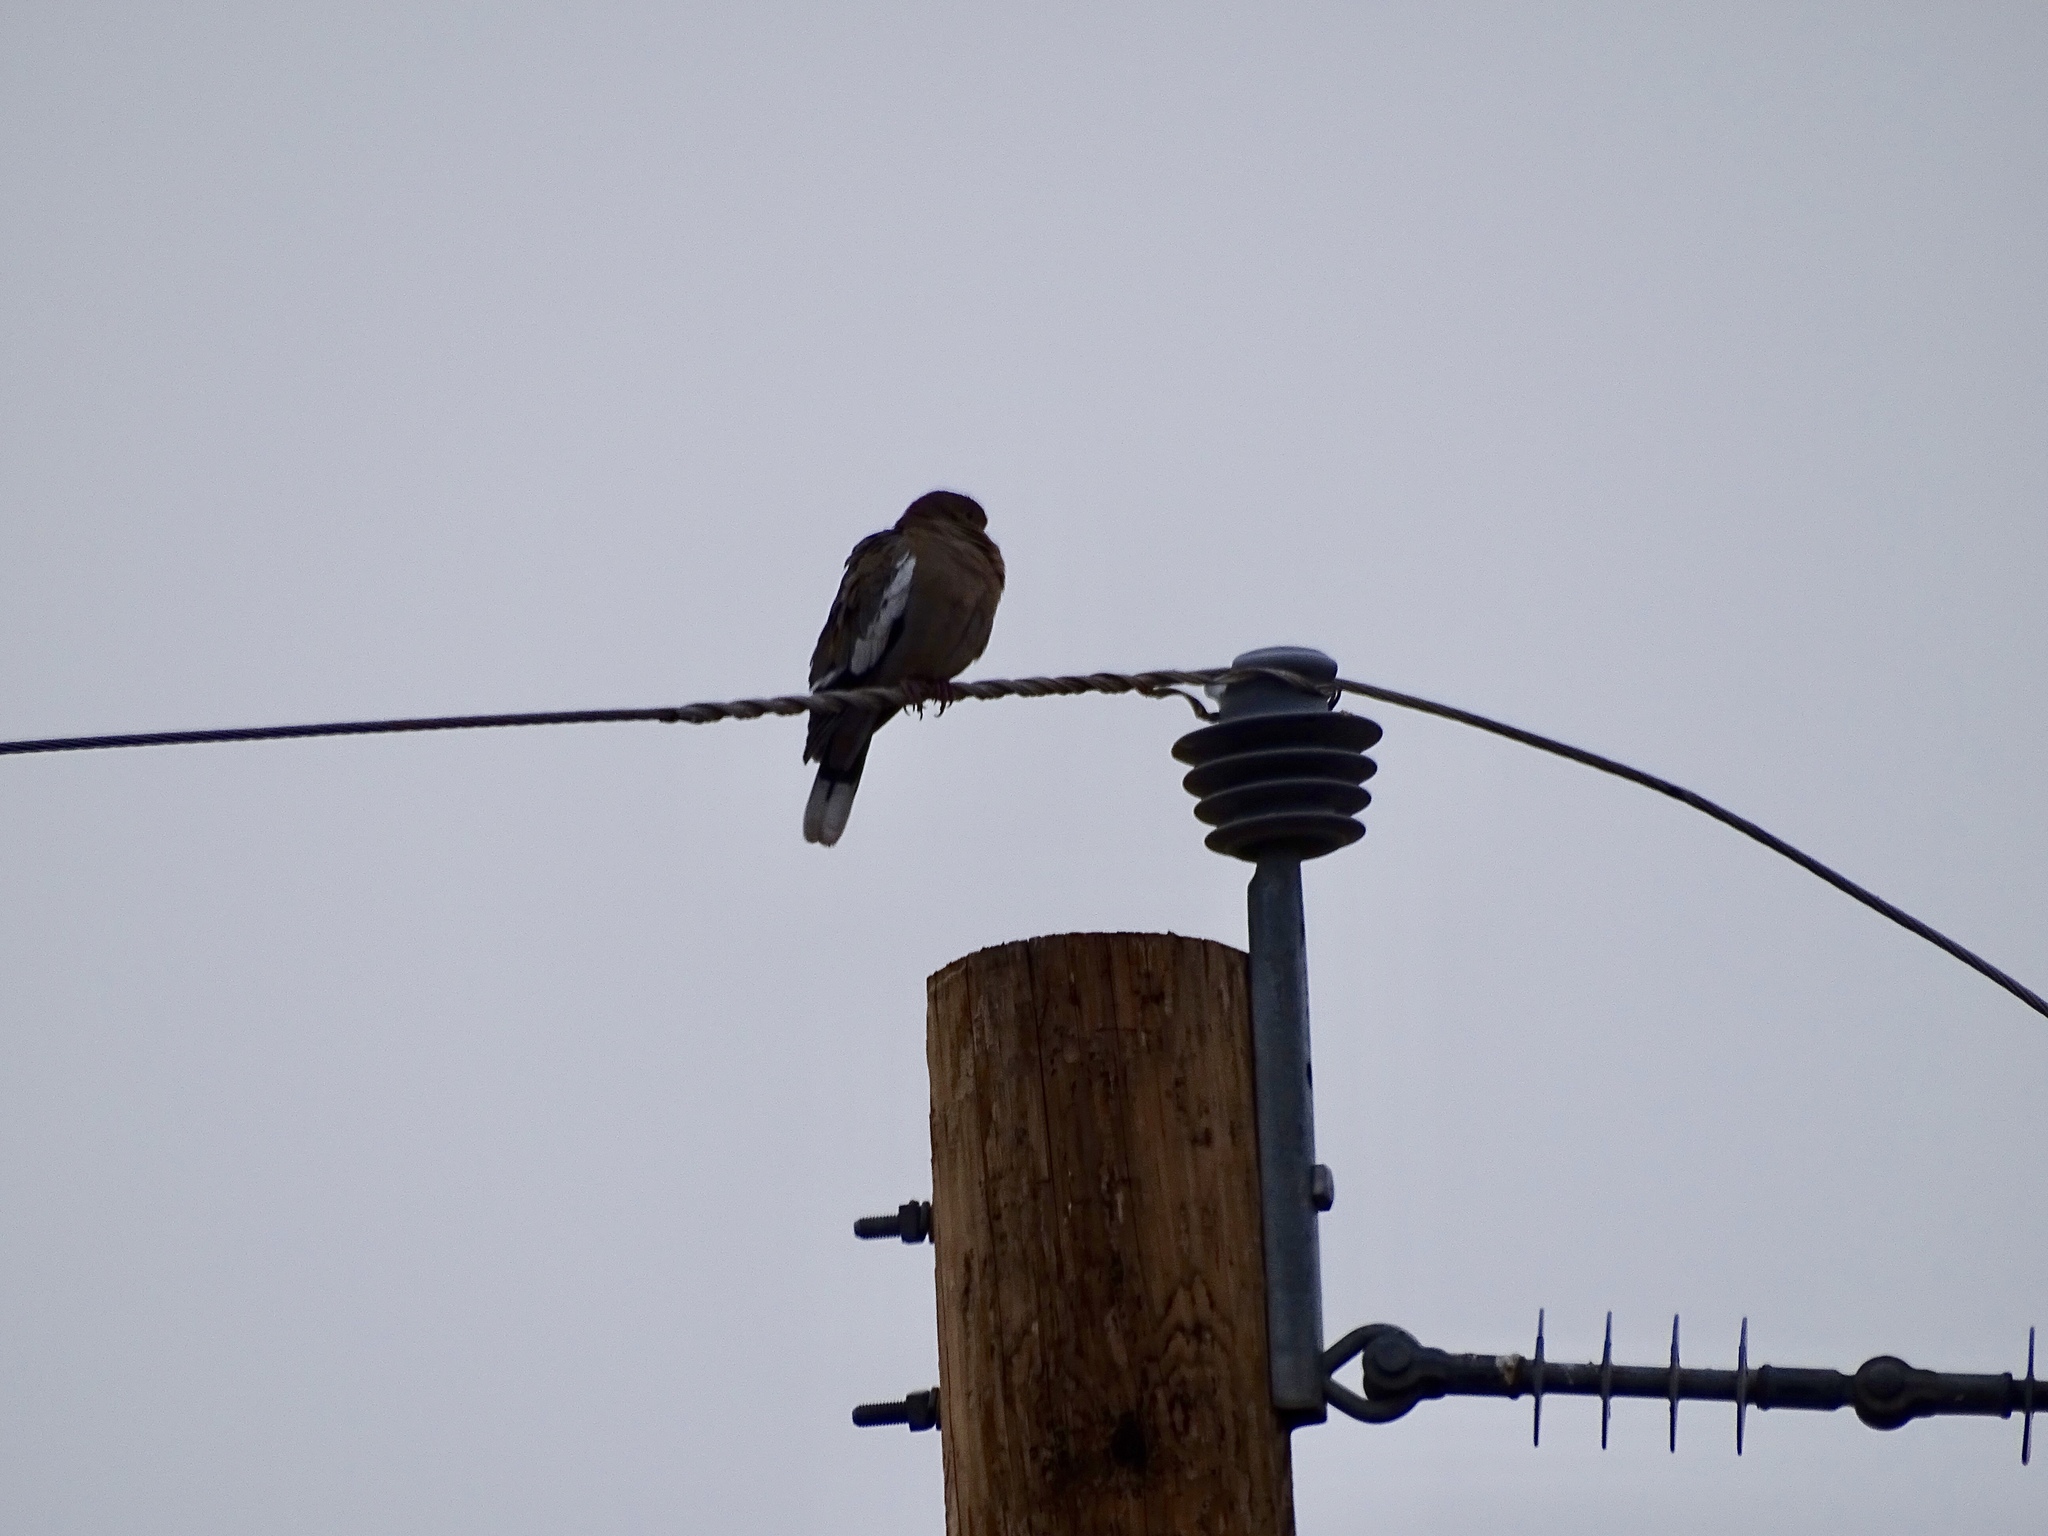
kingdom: Animalia
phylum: Chordata
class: Aves
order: Columbiformes
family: Columbidae
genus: Zenaida
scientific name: Zenaida asiatica
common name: White-winged dove
